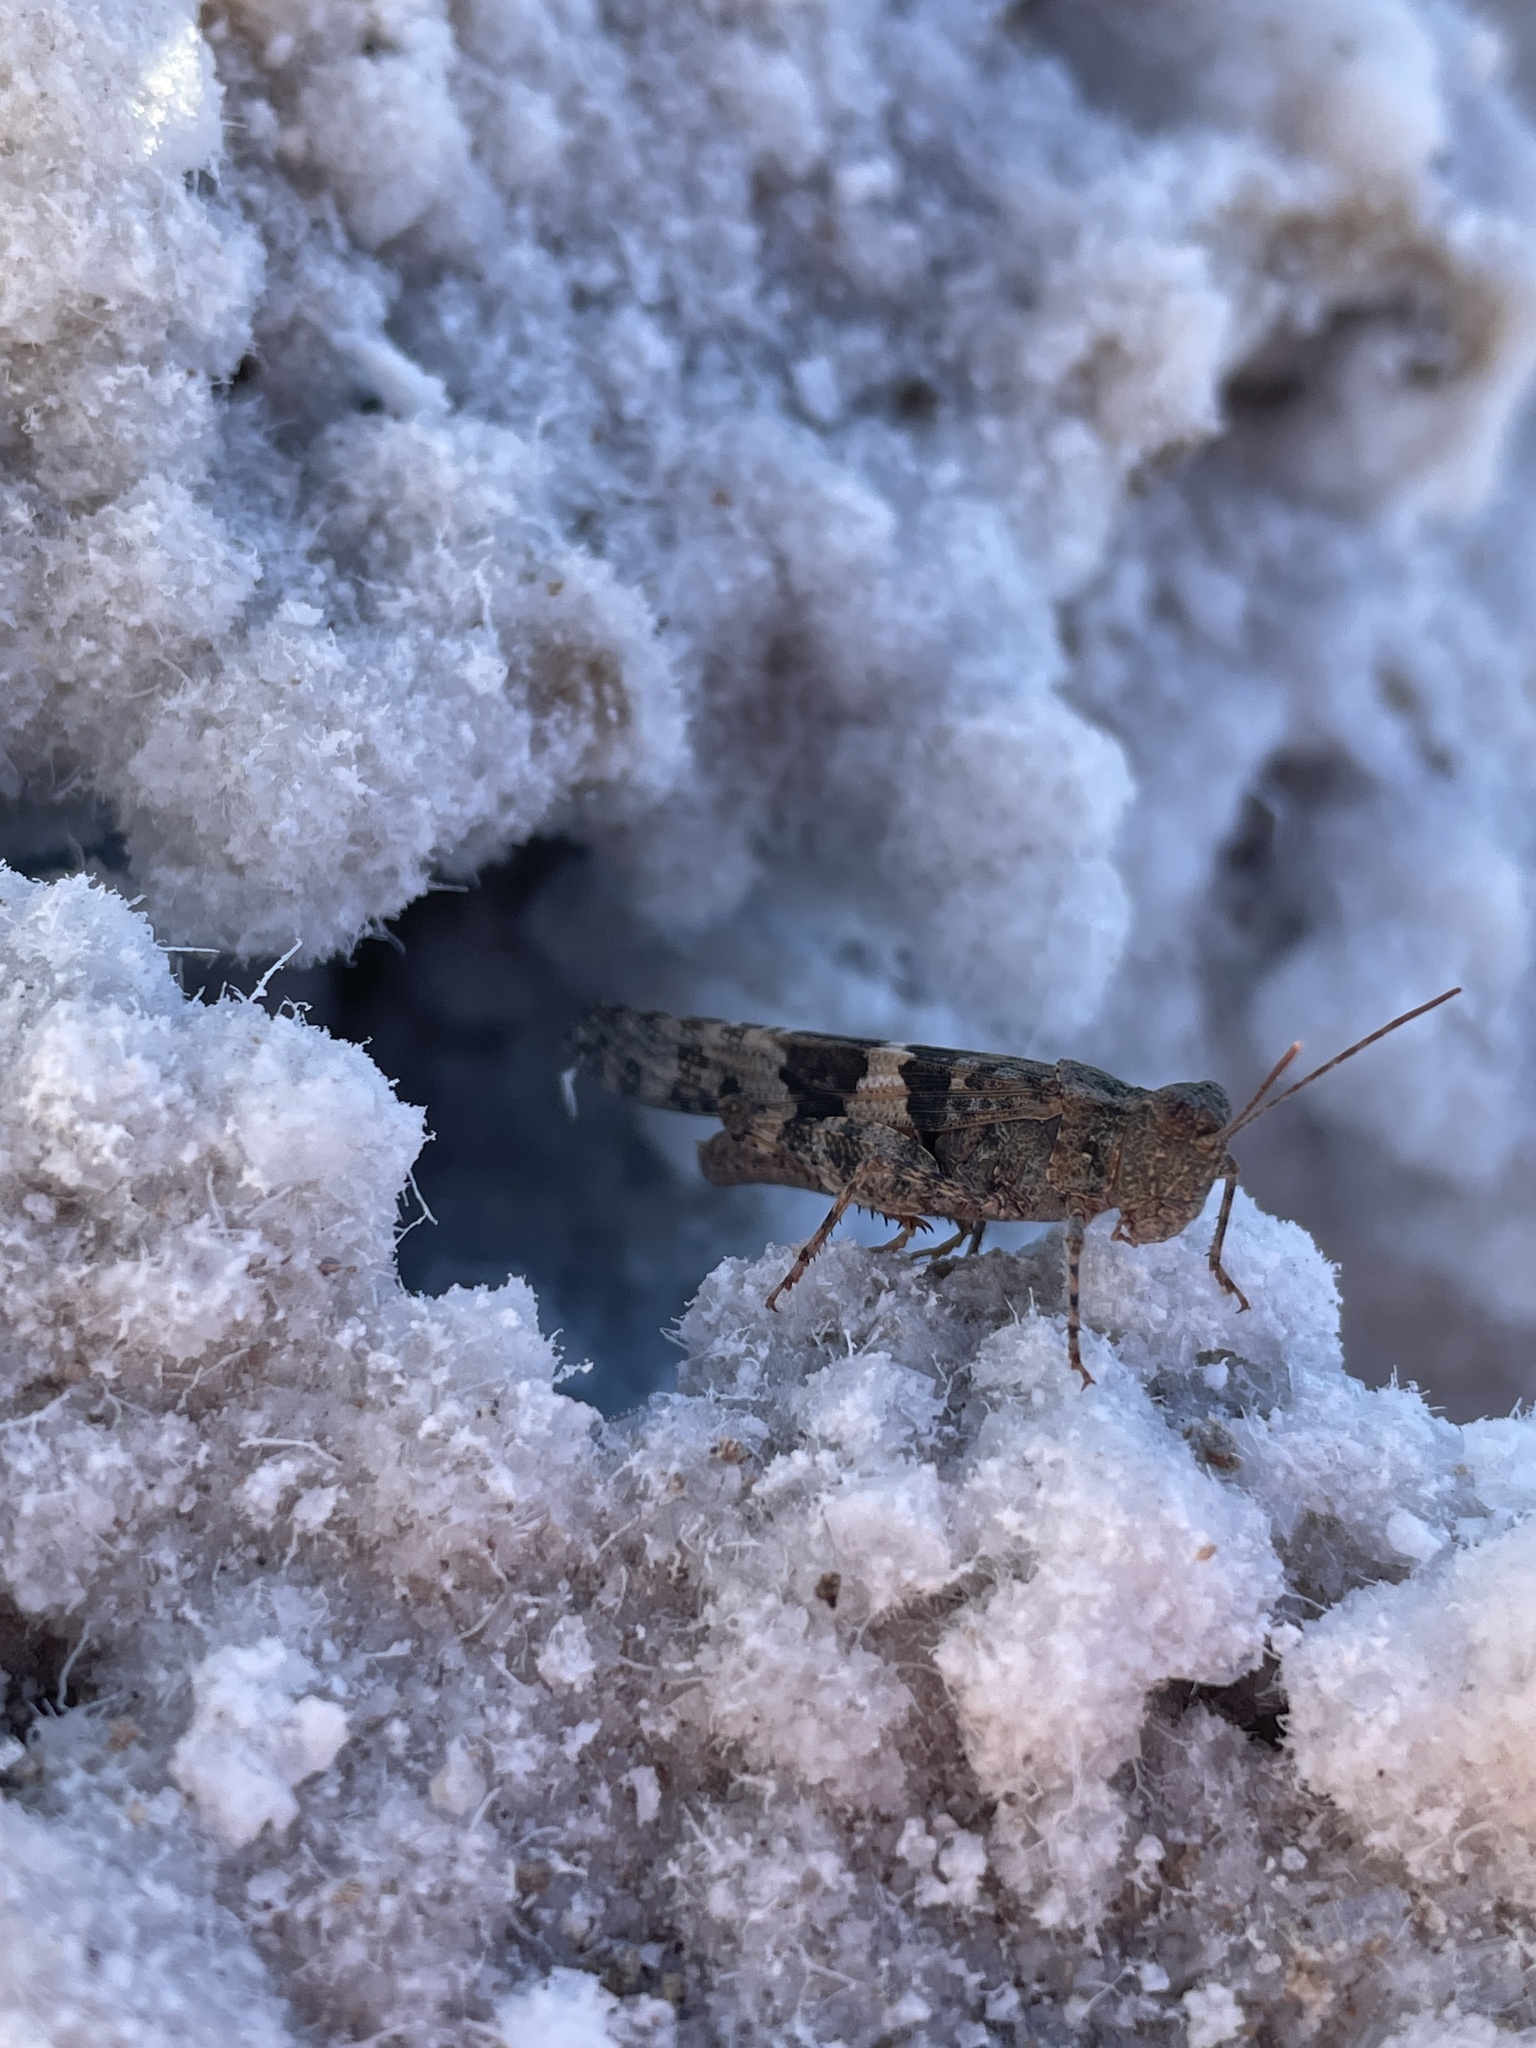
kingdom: Animalia
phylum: Arthropoda
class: Insecta
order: Orthoptera
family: Acrididae
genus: Trimerotropis
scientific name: Trimerotropis pallidipennis
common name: Pallid-winged grasshopper
